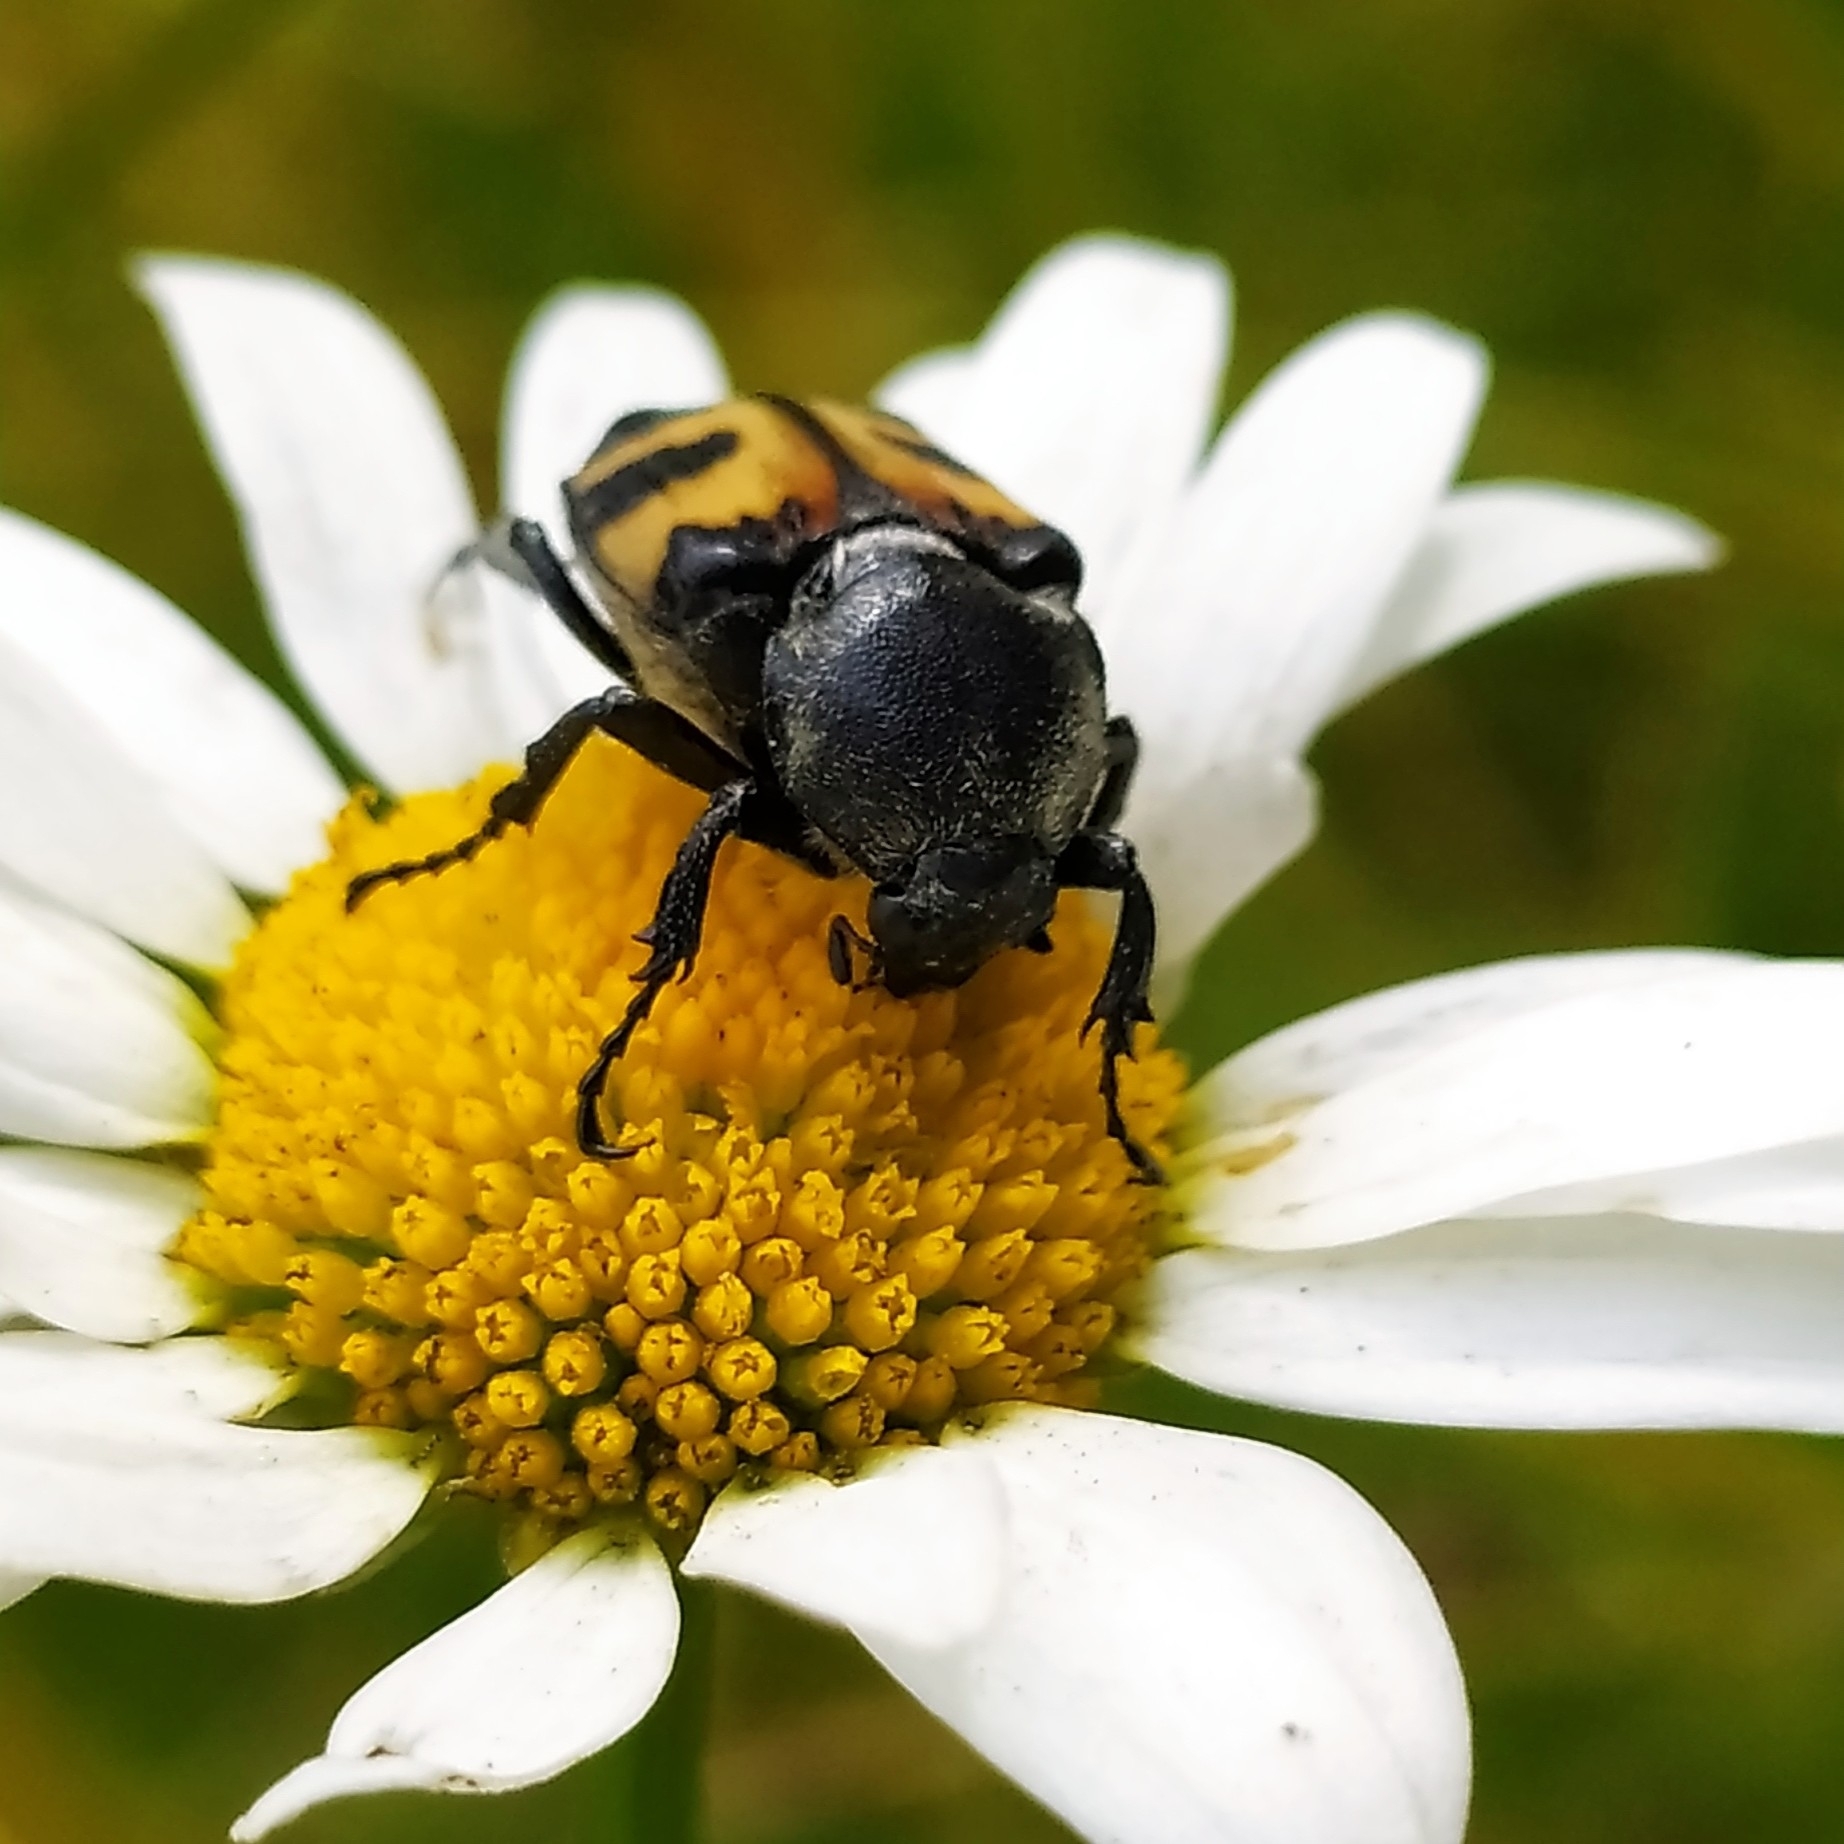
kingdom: Animalia
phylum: Arthropoda
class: Insecta
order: Coleoptera
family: Scarabaeidae
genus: Trichius
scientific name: Trichius fasciatus
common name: Bee beetle
